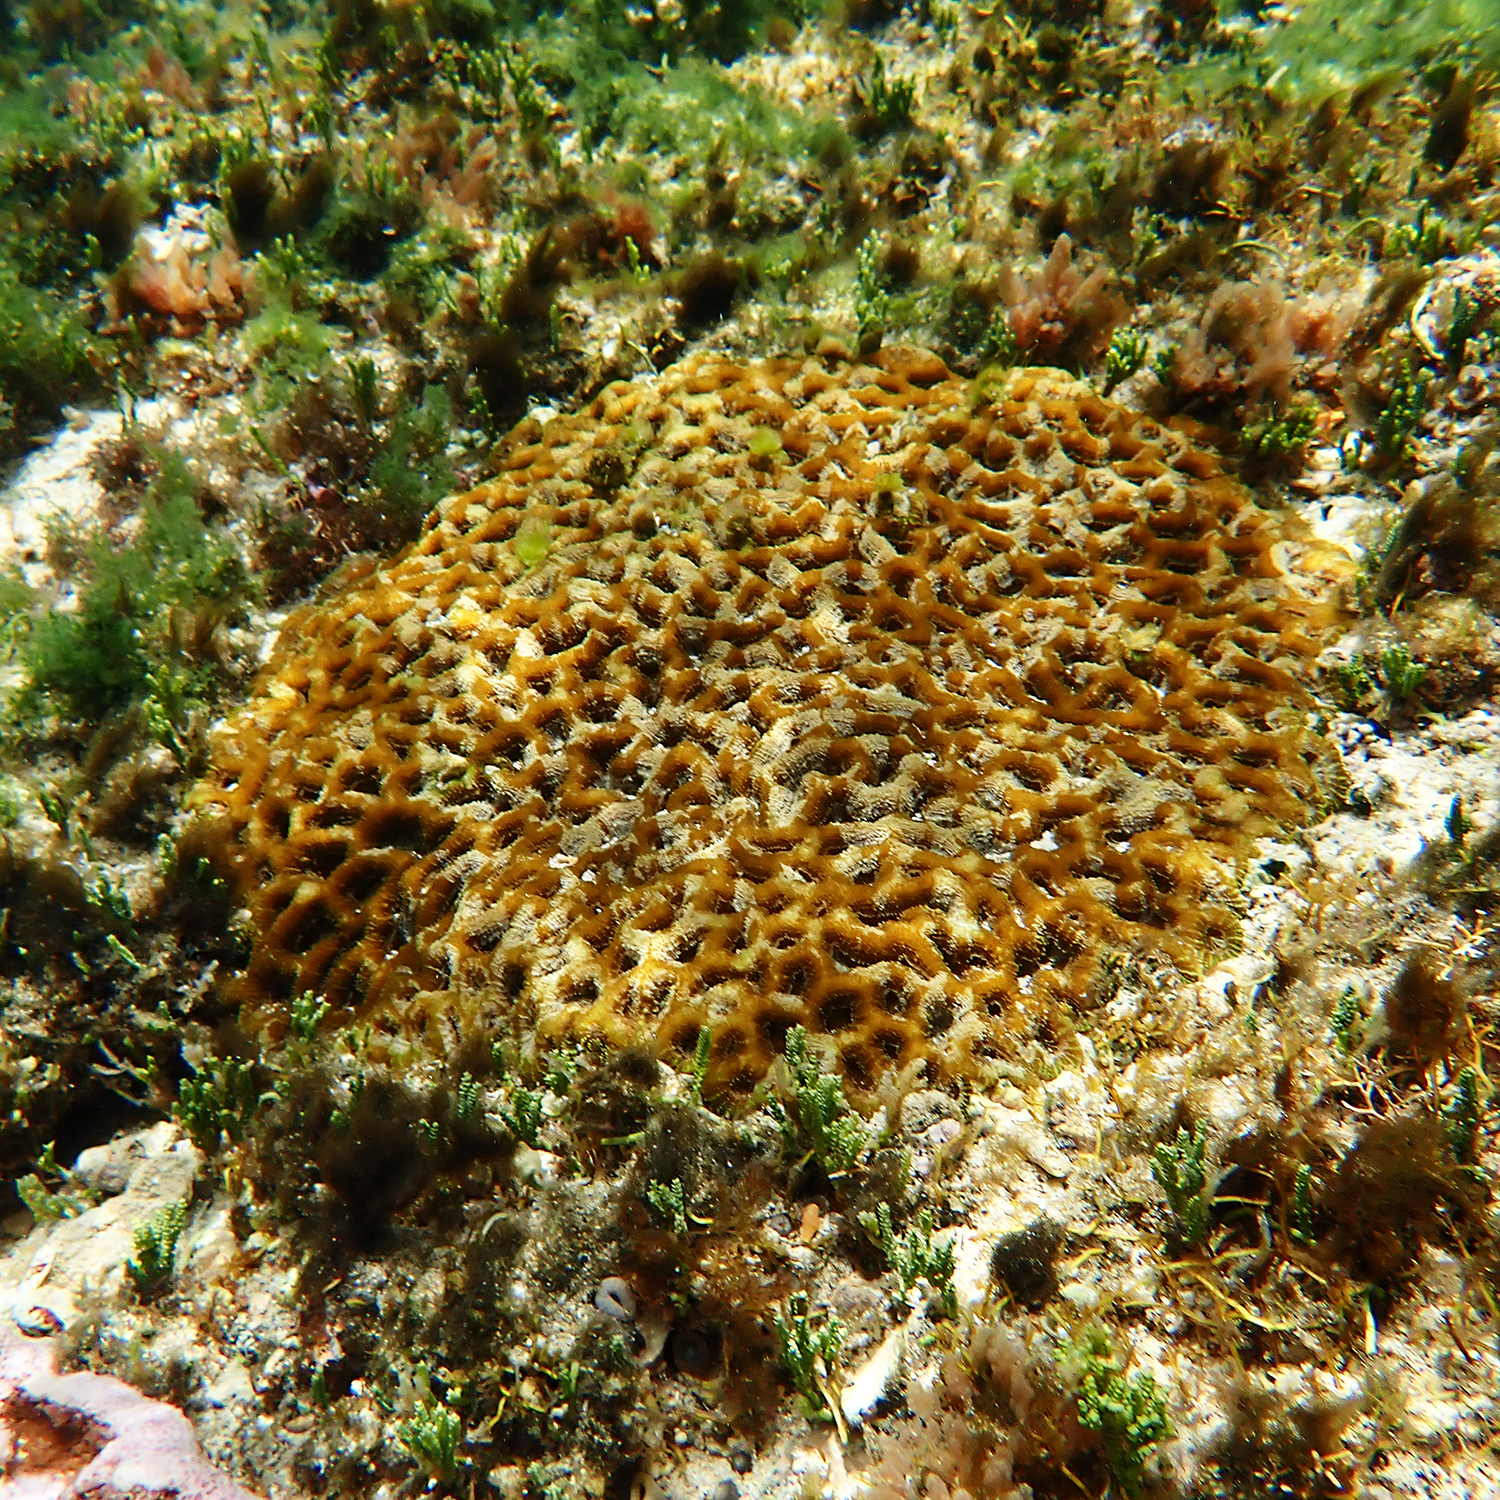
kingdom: Animalia
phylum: Cnidaria
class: Anthozoa
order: Scleractinia
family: Lobophylliidae
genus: Homophyllia
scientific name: Homophyllia bowerbanki
